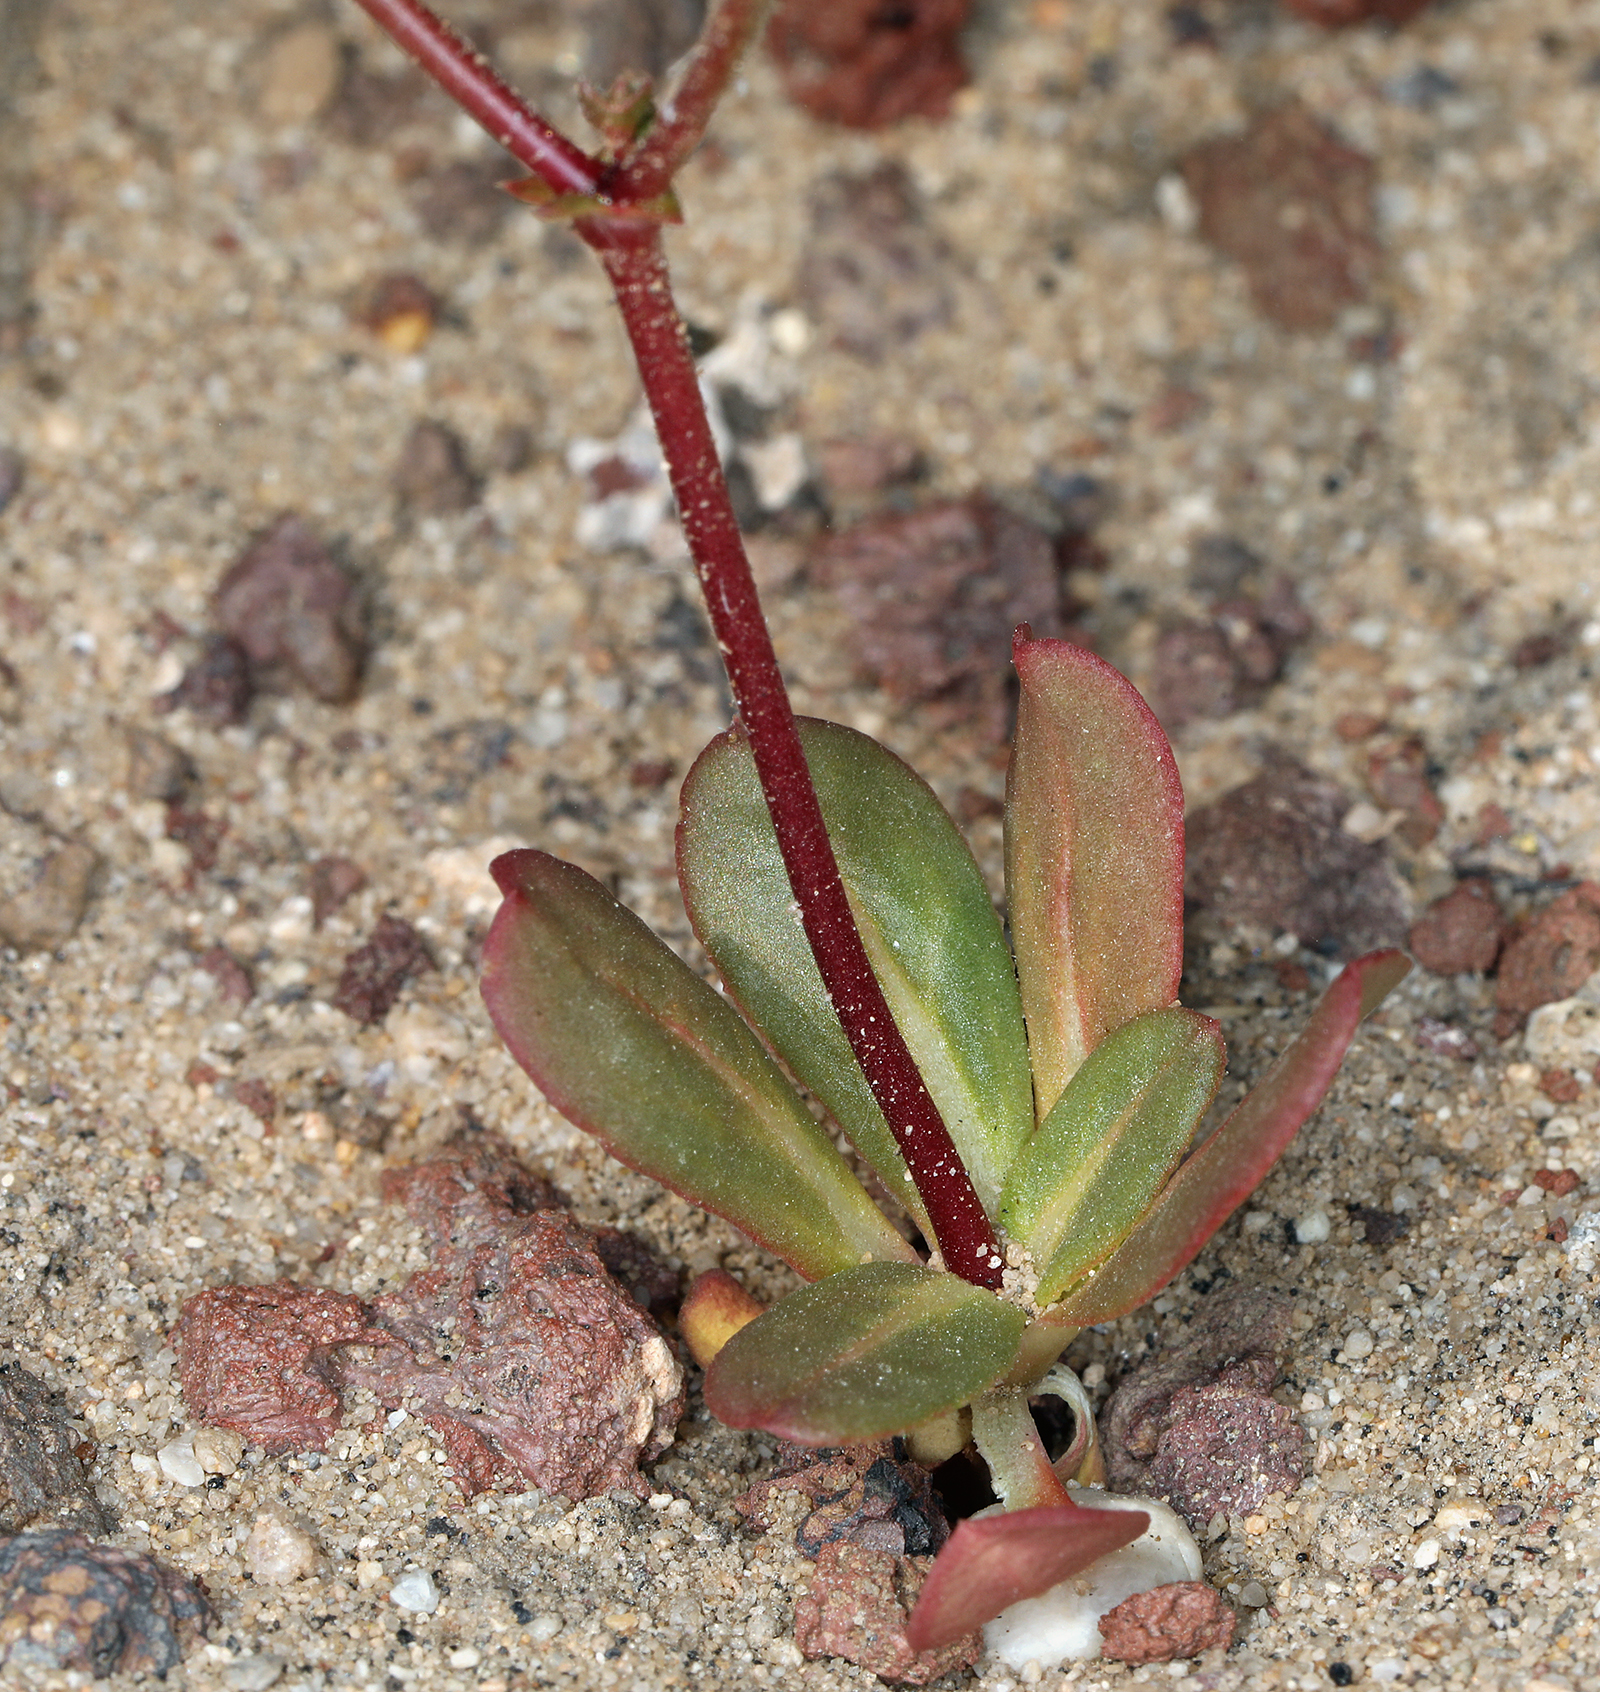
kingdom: Plantae
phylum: Tracheophyta
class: Magnoliopsida
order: Caryophyllales
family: Polygonaceae
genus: Centrostegia
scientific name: Centrostegia thurberi
